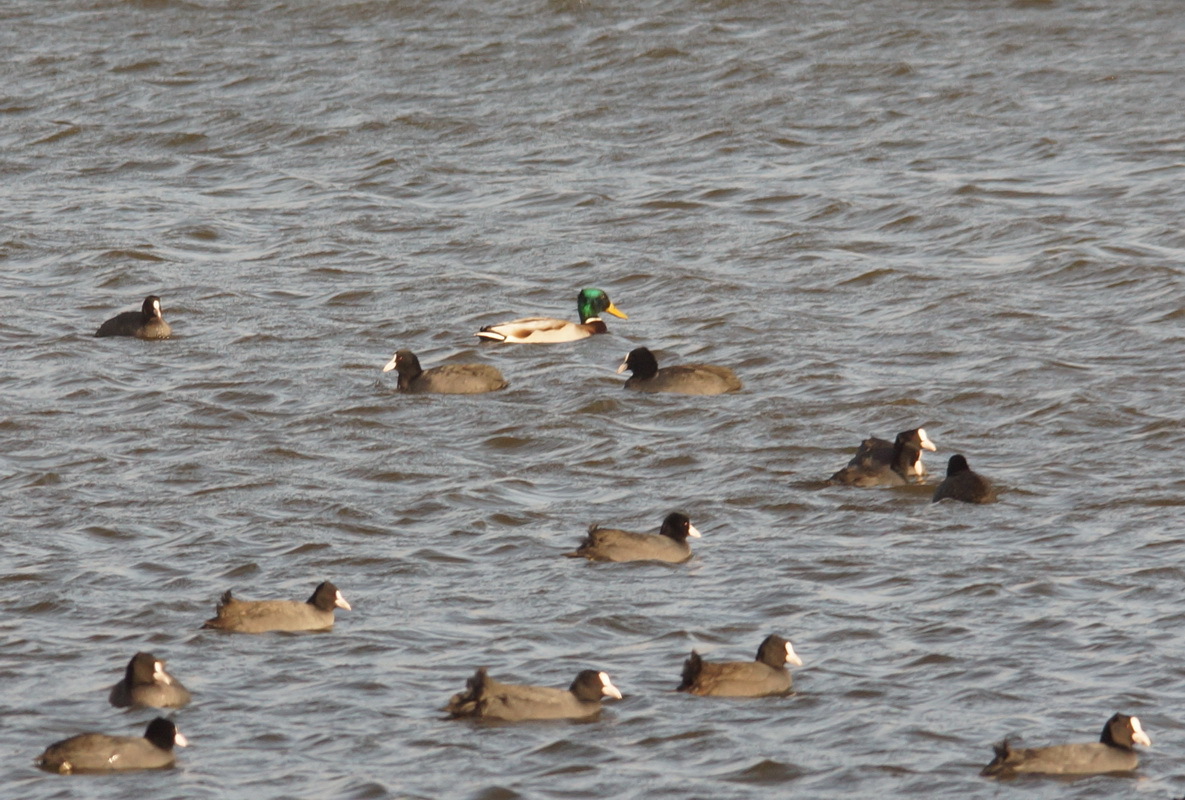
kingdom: Animalia
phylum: Chordata
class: Aves
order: Anseriformes
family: Anatidae
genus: Anas
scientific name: Anas platyrhynchos
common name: Mallard
